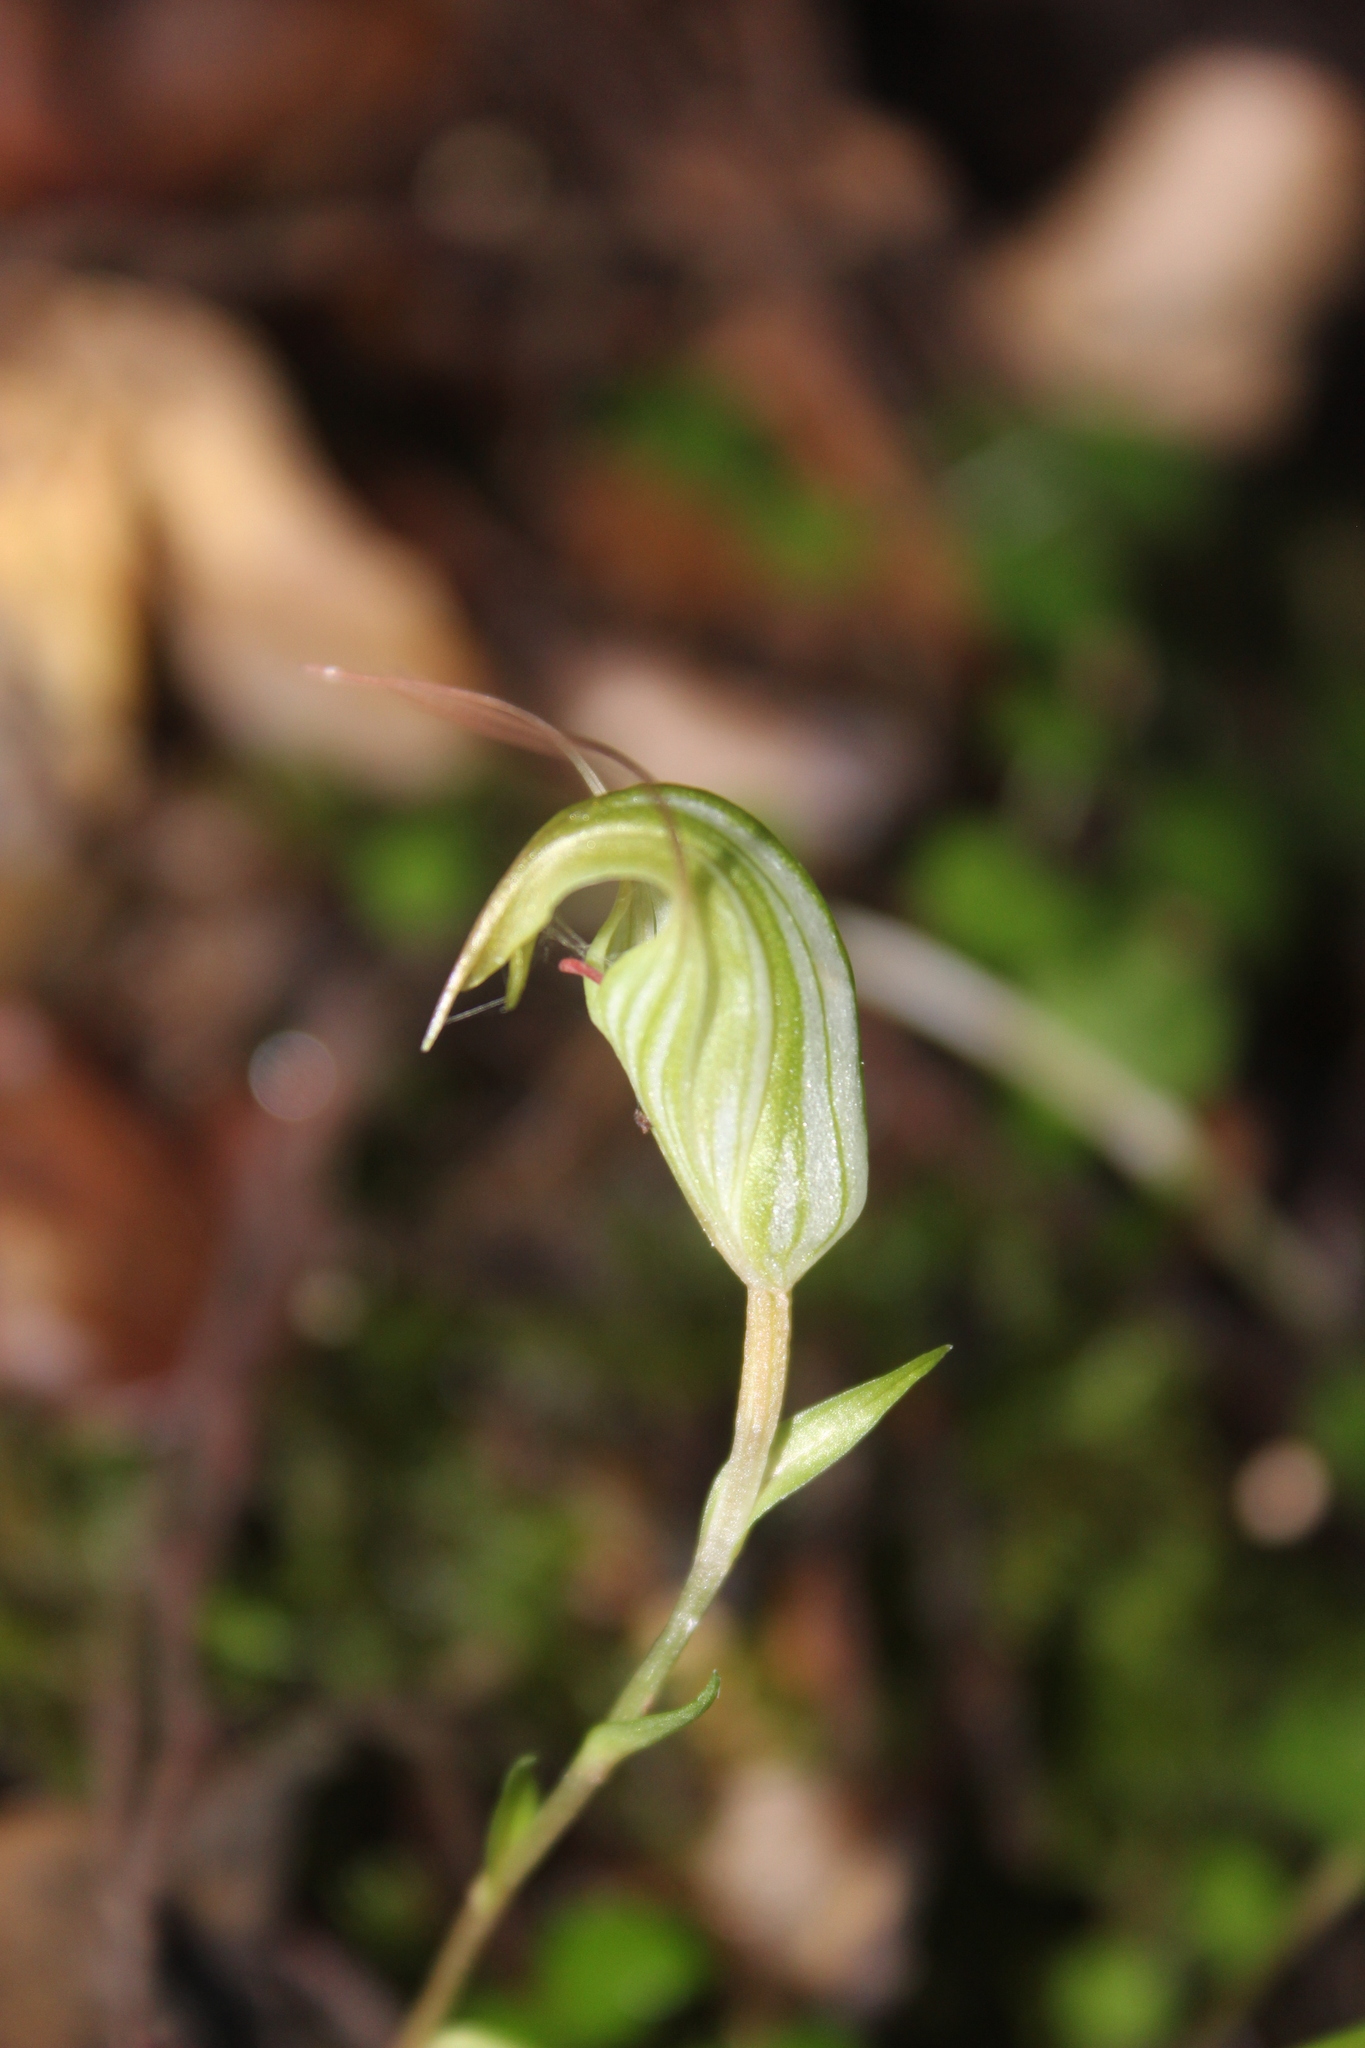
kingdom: Plantae
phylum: Tracheophyta
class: Liliopsida
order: Asparagales
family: Orchidaceae
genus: Pterostylis
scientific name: Pterostylis alobula
